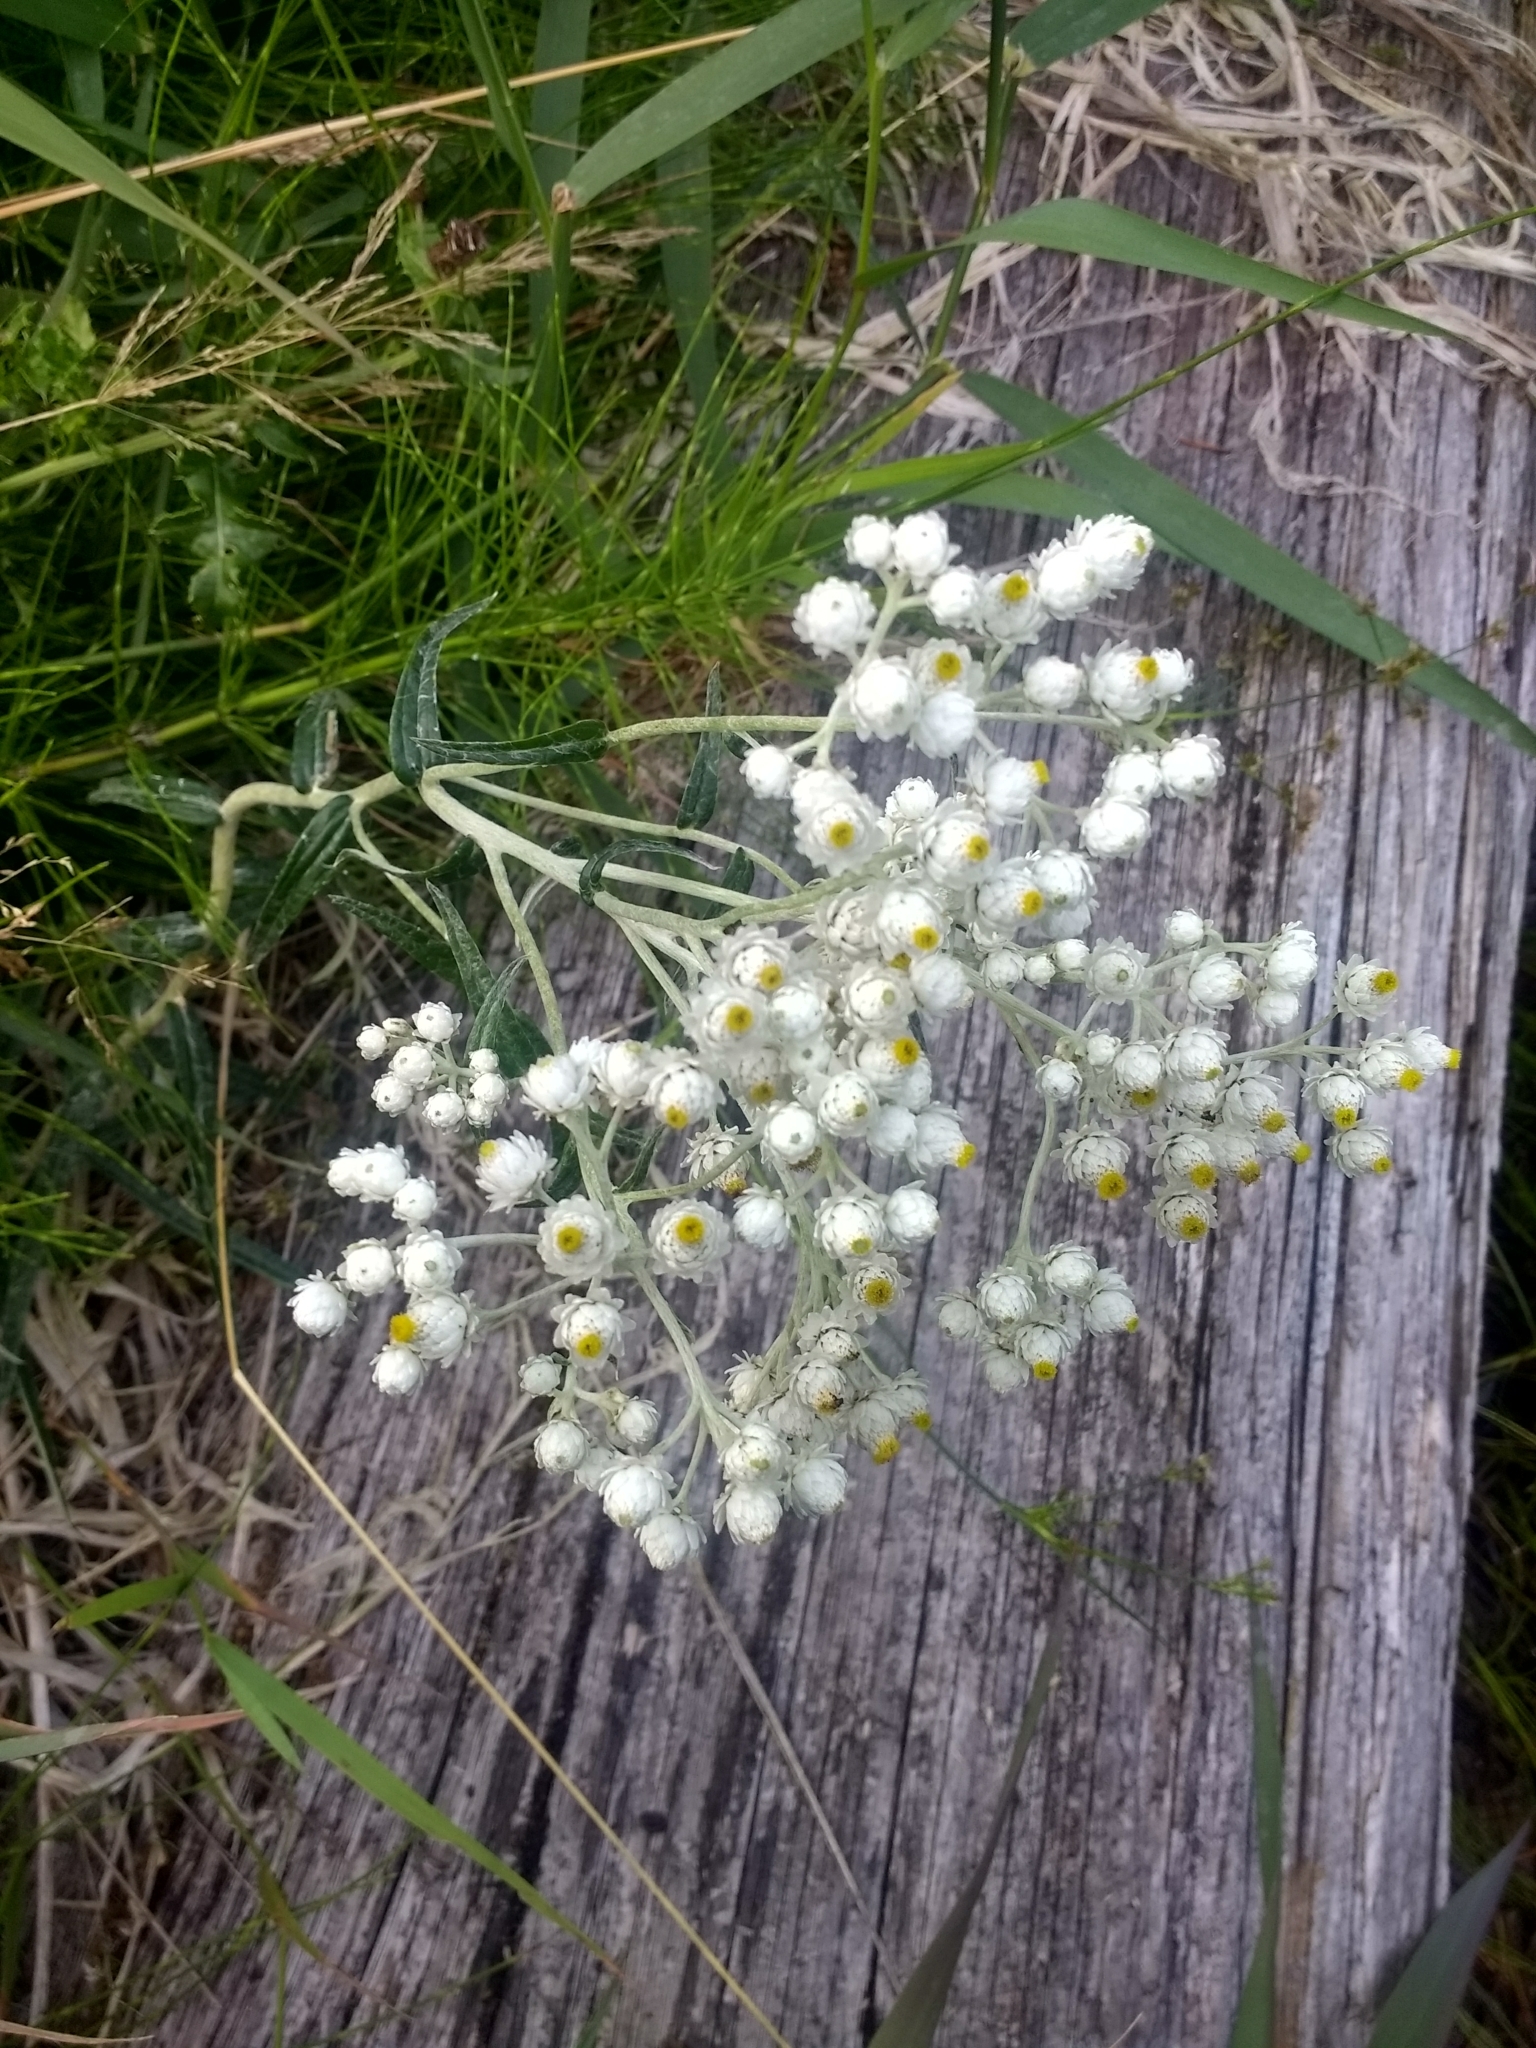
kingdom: Plantae
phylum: Tracheophyta
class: Magnoliopsida
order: Asterales
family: Asteraceae
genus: Anaphalis
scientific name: Anaphalis margaritacea
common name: Pearly everlasting
